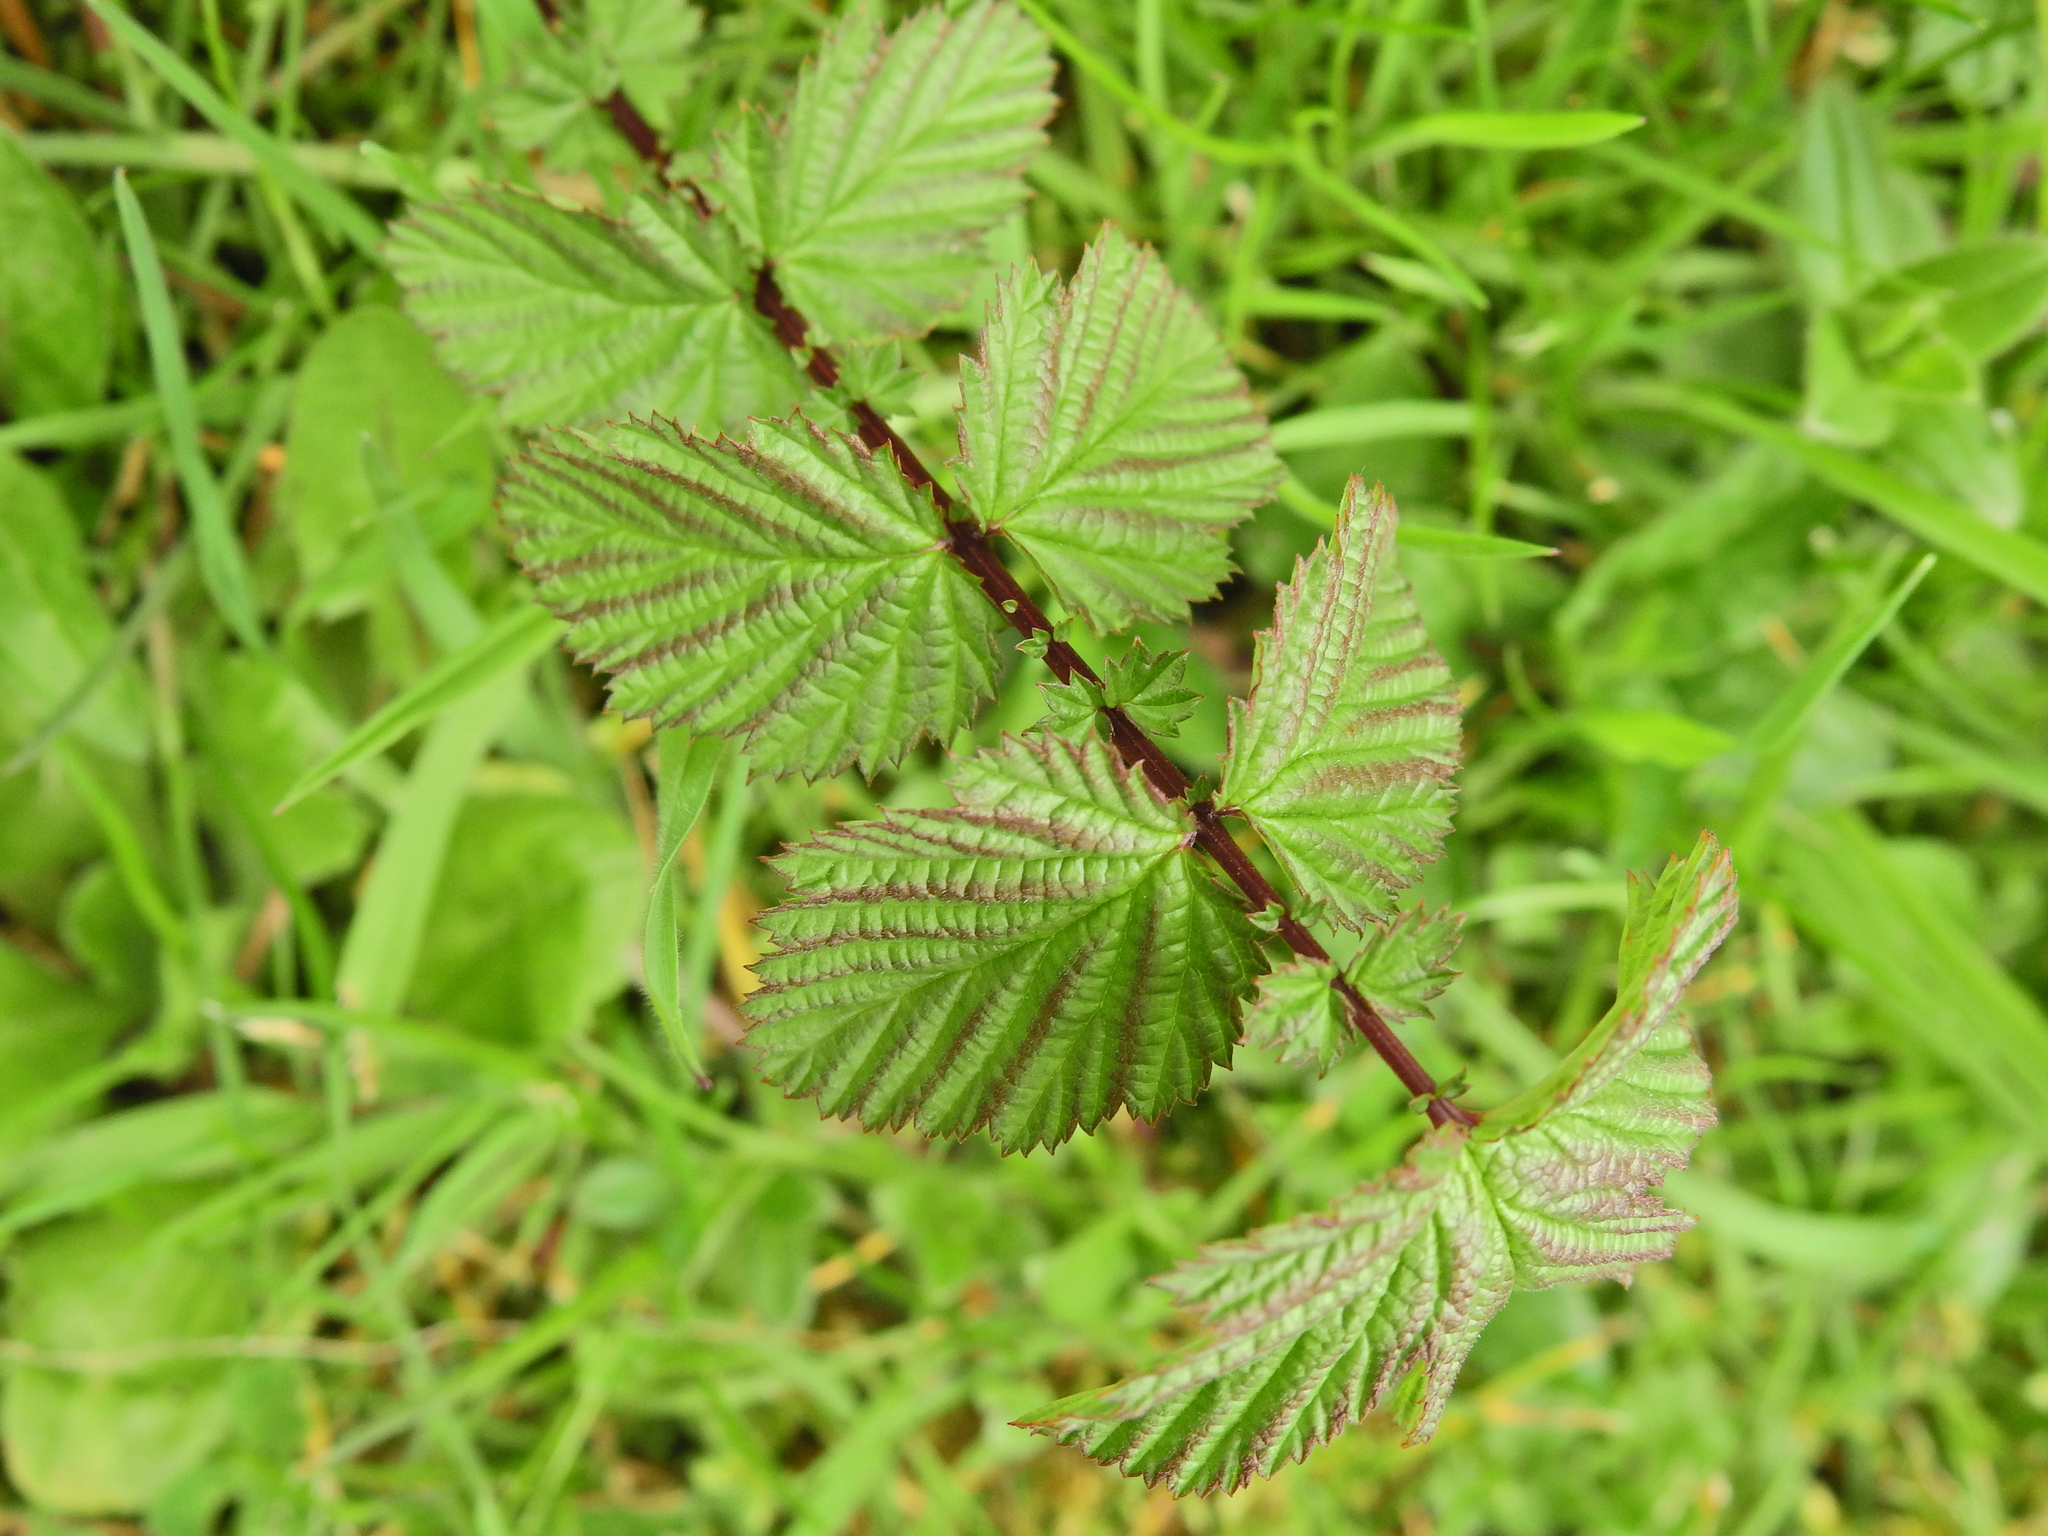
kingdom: Plantae
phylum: Tracheophyta
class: Magnoliopsida
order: Rosales
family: Rosaceae
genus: Filipendula
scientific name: Filipendula ulmaria
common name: Meadowsweet
